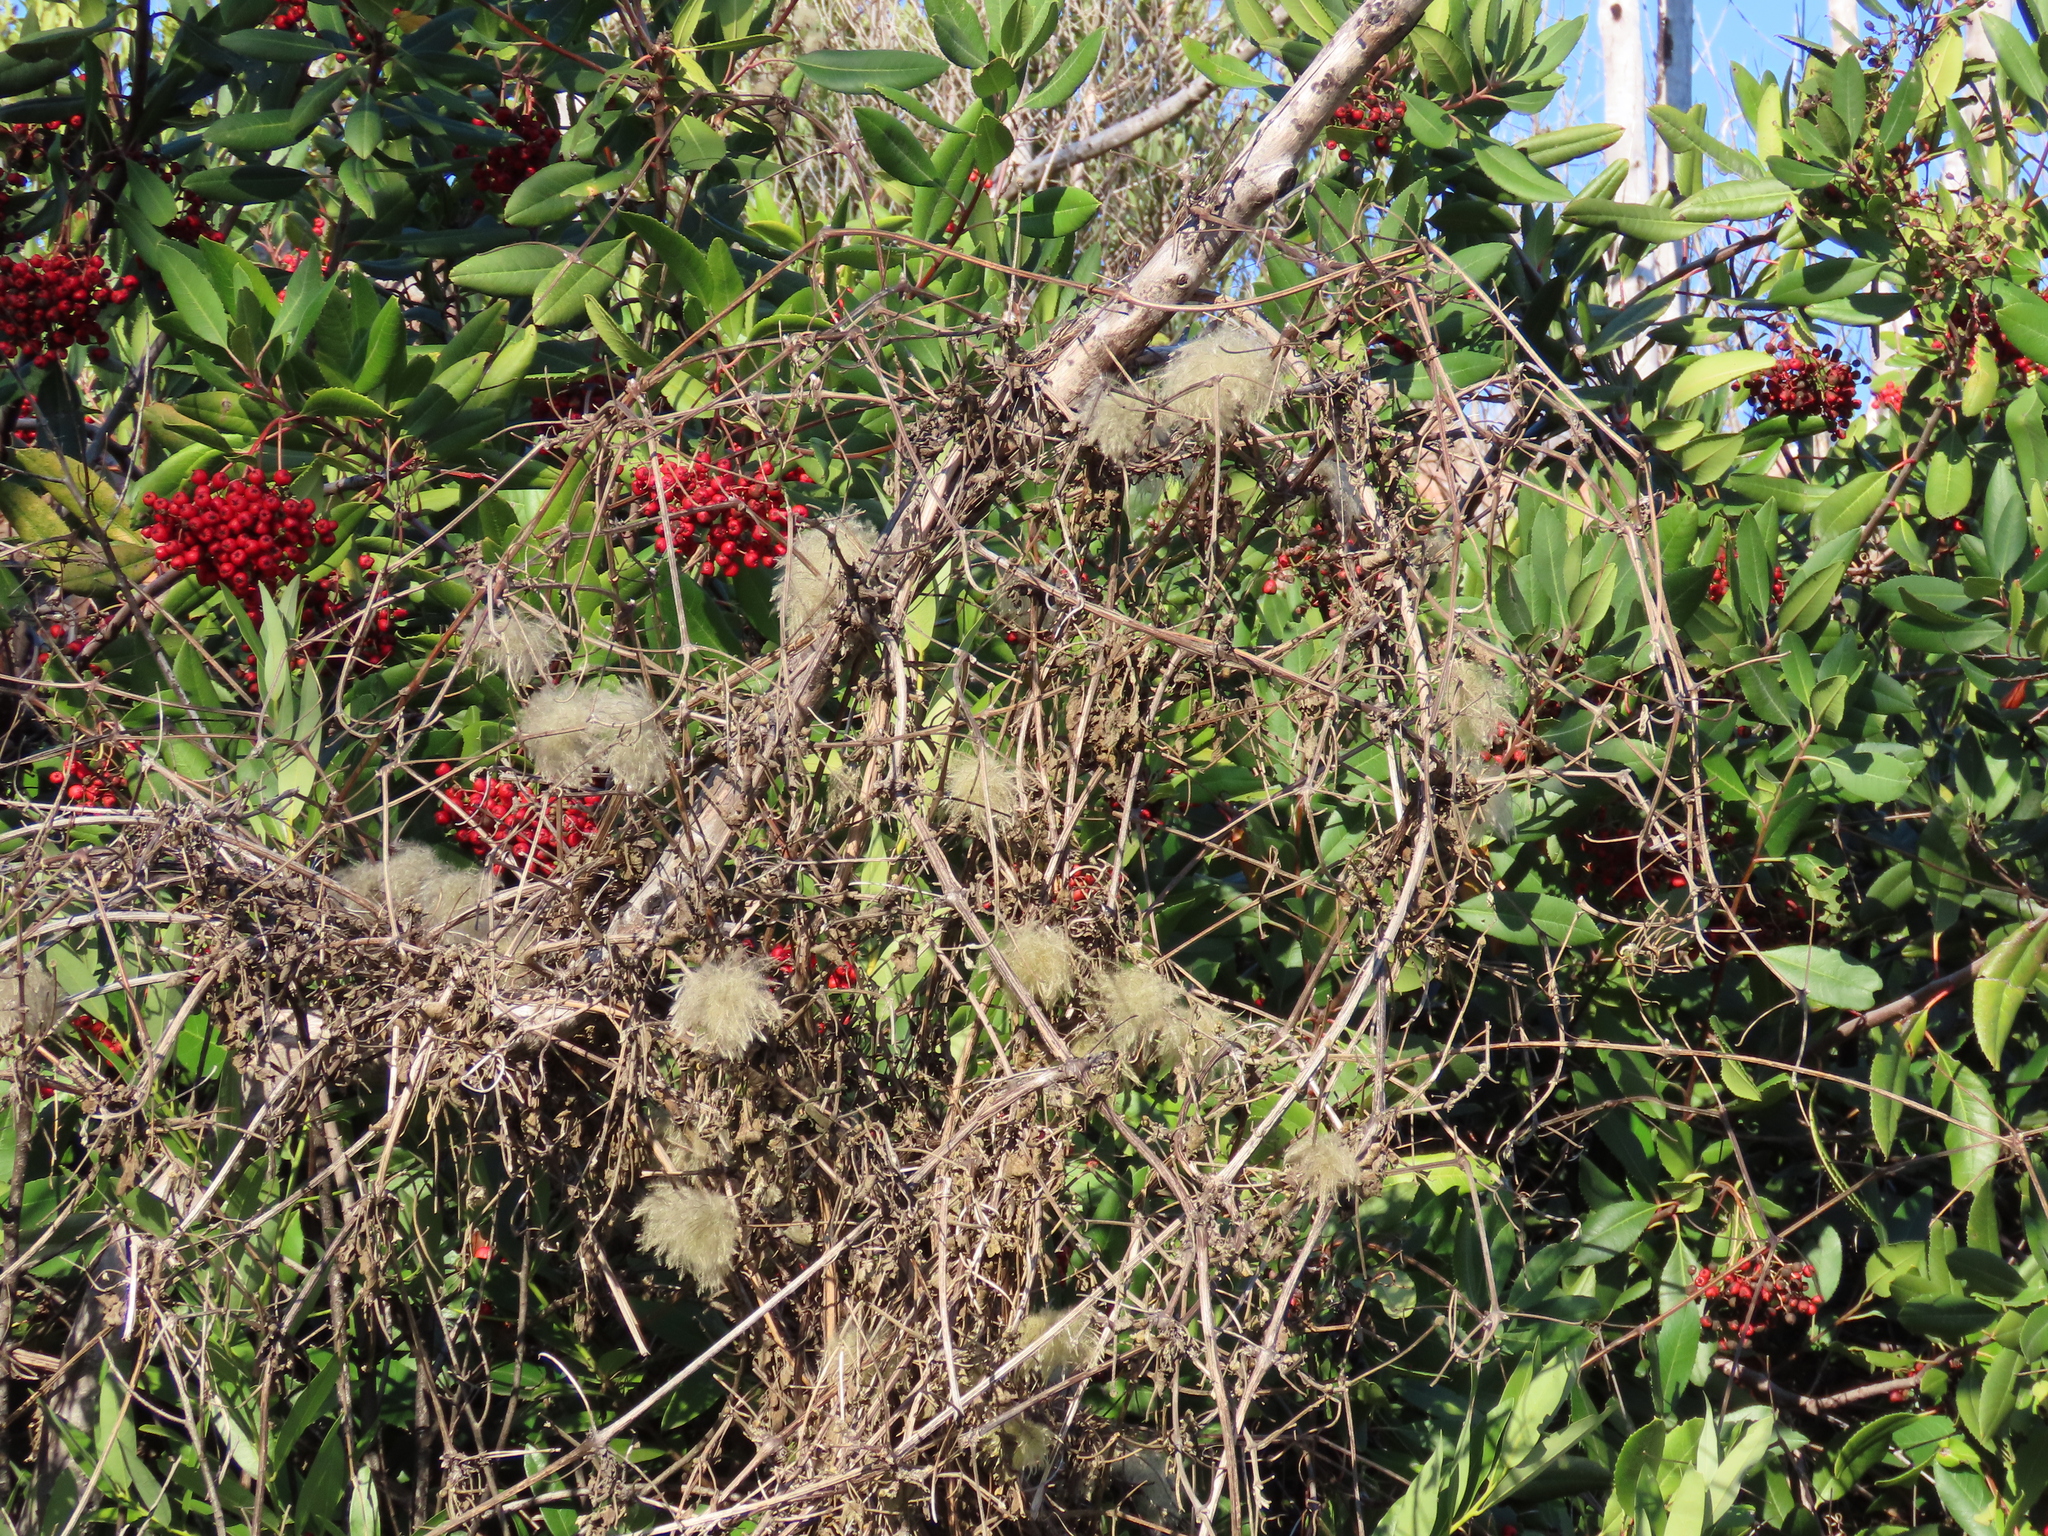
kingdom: Plantae
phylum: Tracheophyta
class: Magnoliopsida
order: Ranunculales
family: Ranunculaceae
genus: Clematis
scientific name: Clematis lasiantha
